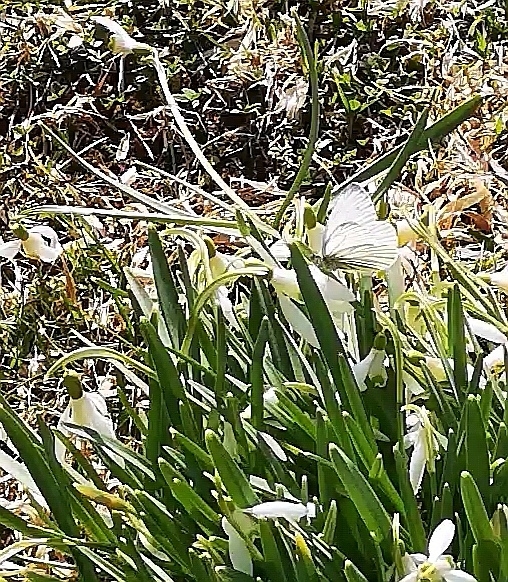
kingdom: Animalia
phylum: Arthropoda
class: Insecta
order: Lepidoptera
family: Pieridae
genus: Pieris
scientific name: Pieris napi
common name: Green-veined white
